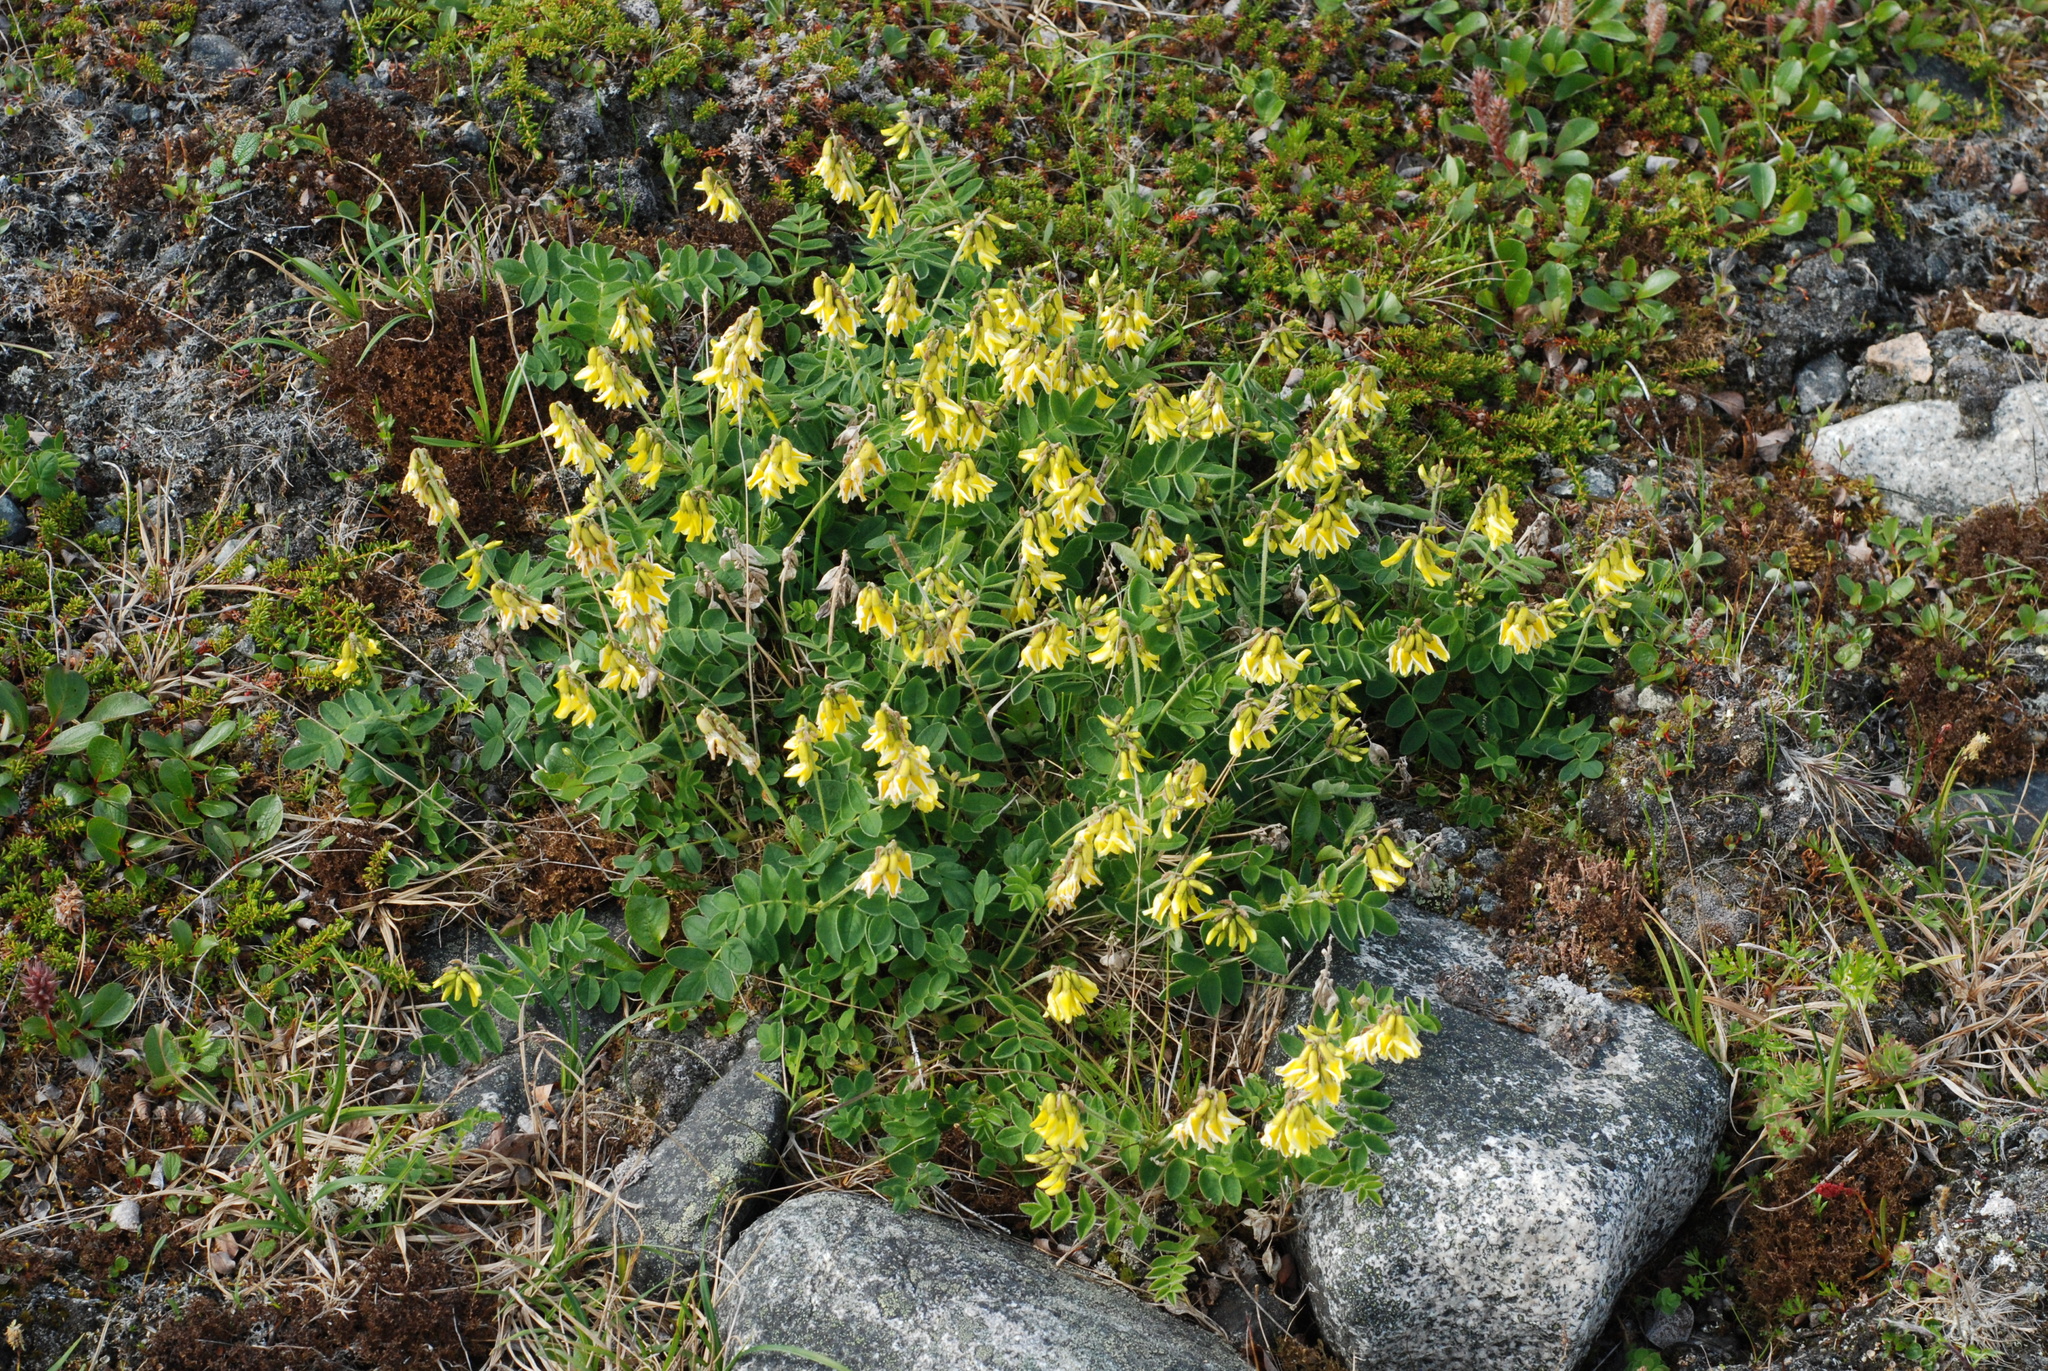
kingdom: Plantae
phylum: Tracheophyta
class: Magnoliopsida
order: Fabales
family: Fabaceae
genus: Astragalus
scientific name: Astragalus umbellatus
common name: Tundra milk-vetch
